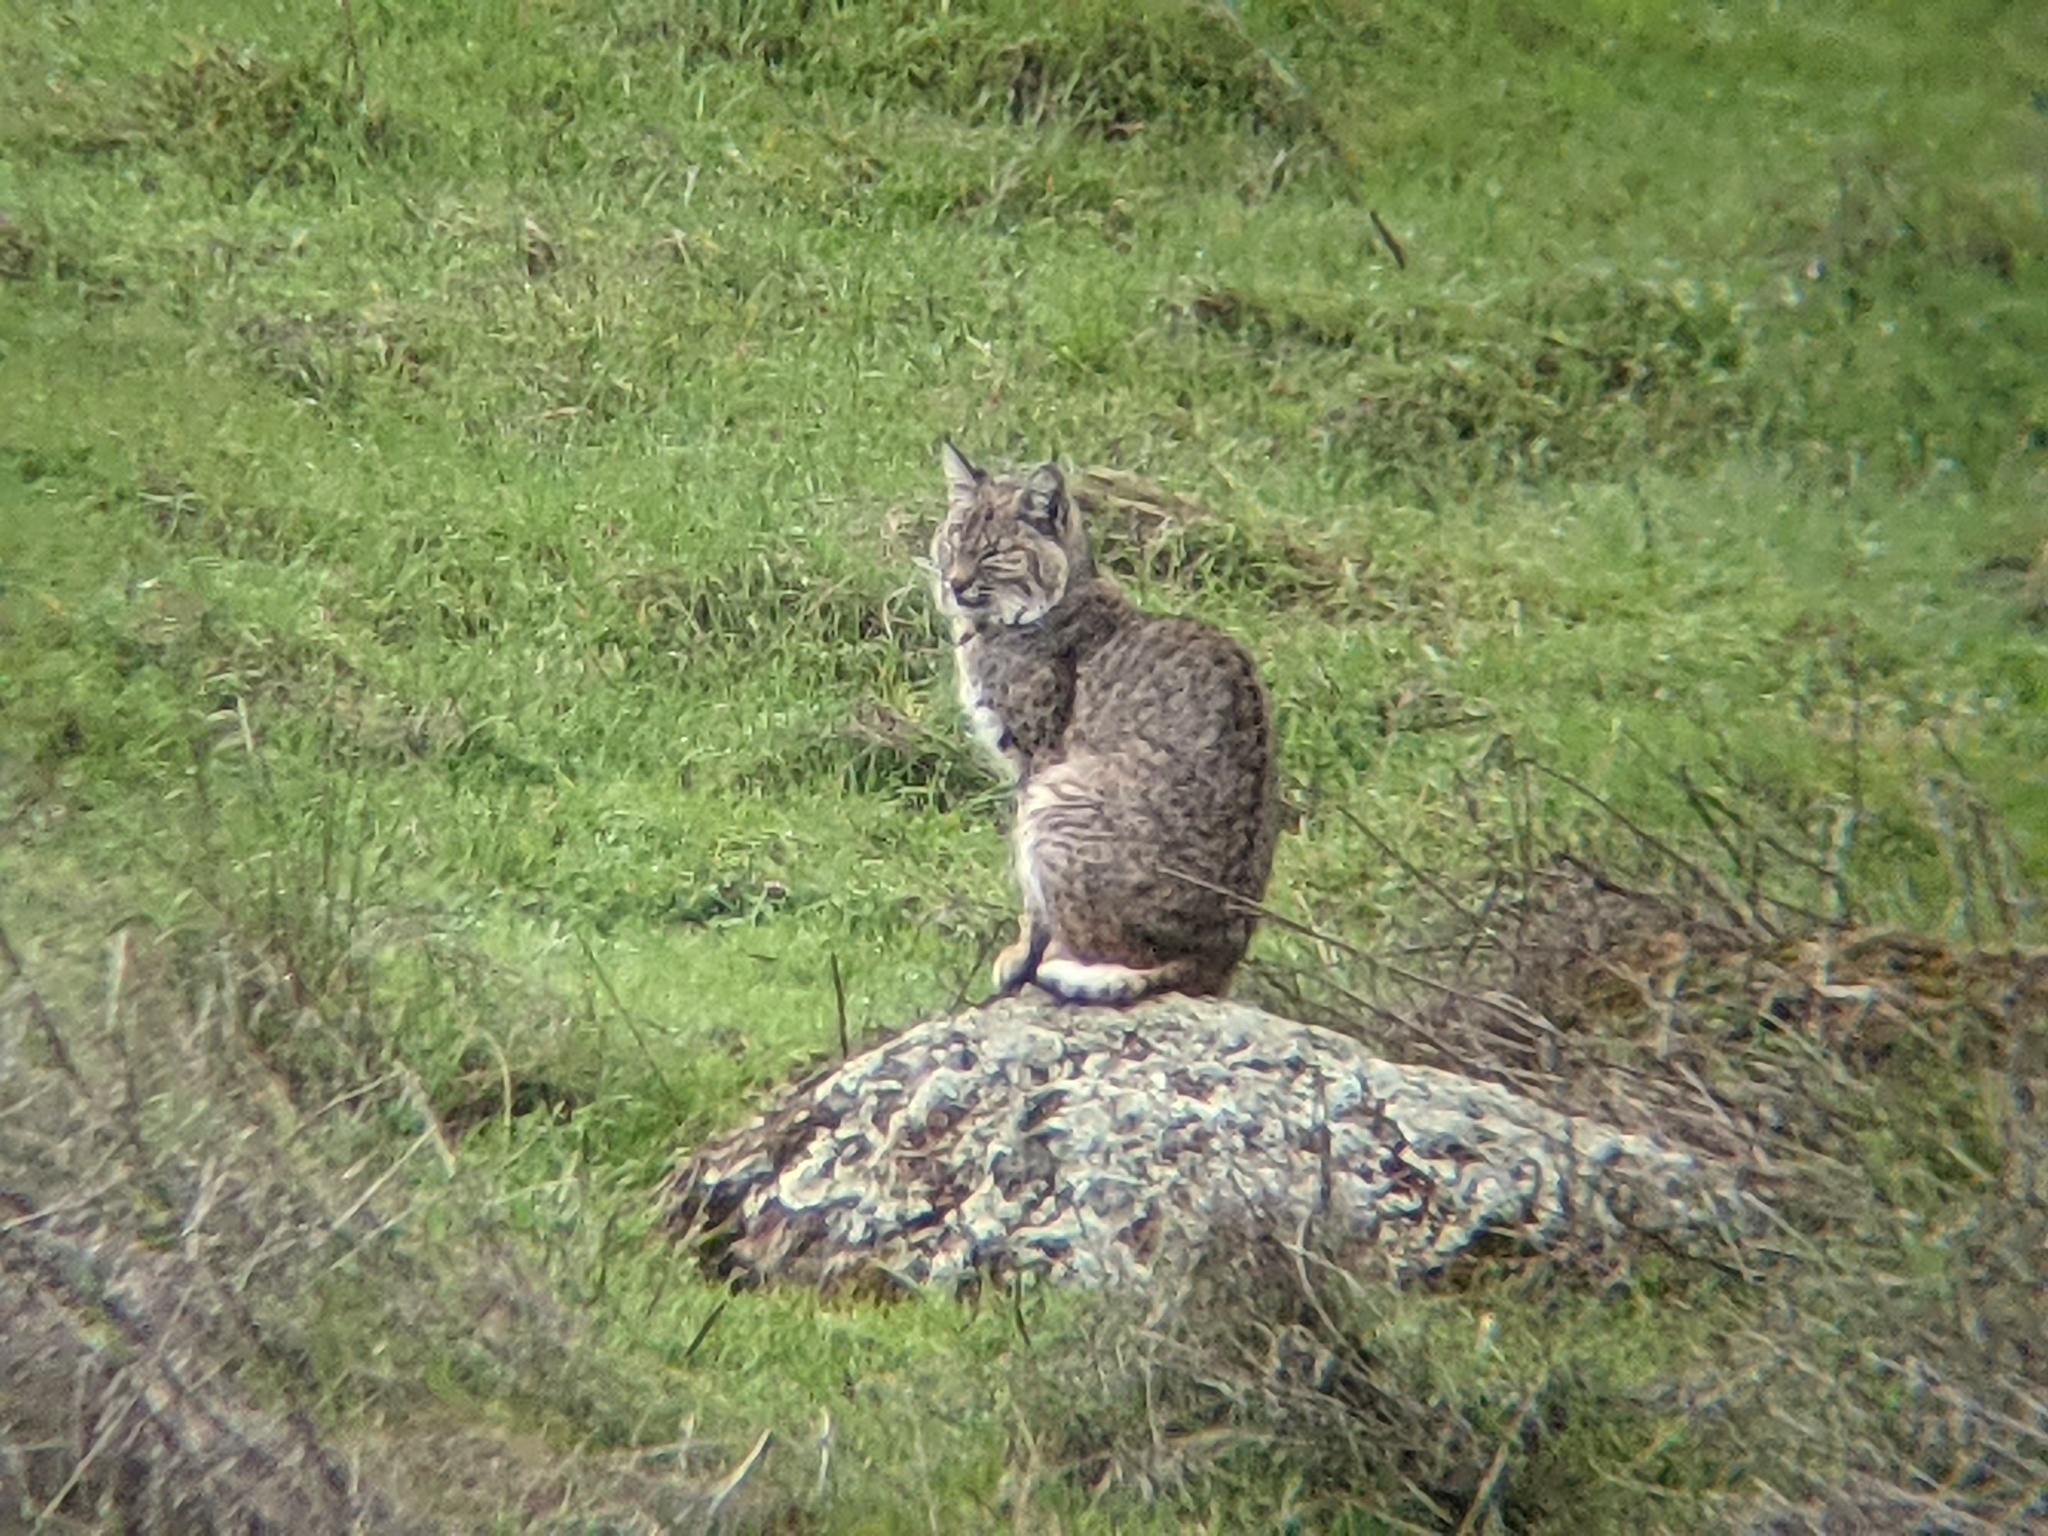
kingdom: Animalia
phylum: Chordata
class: Mammalia
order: Carnivora
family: Felidae
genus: Lynx
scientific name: Lynx rufus
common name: Bobcat
